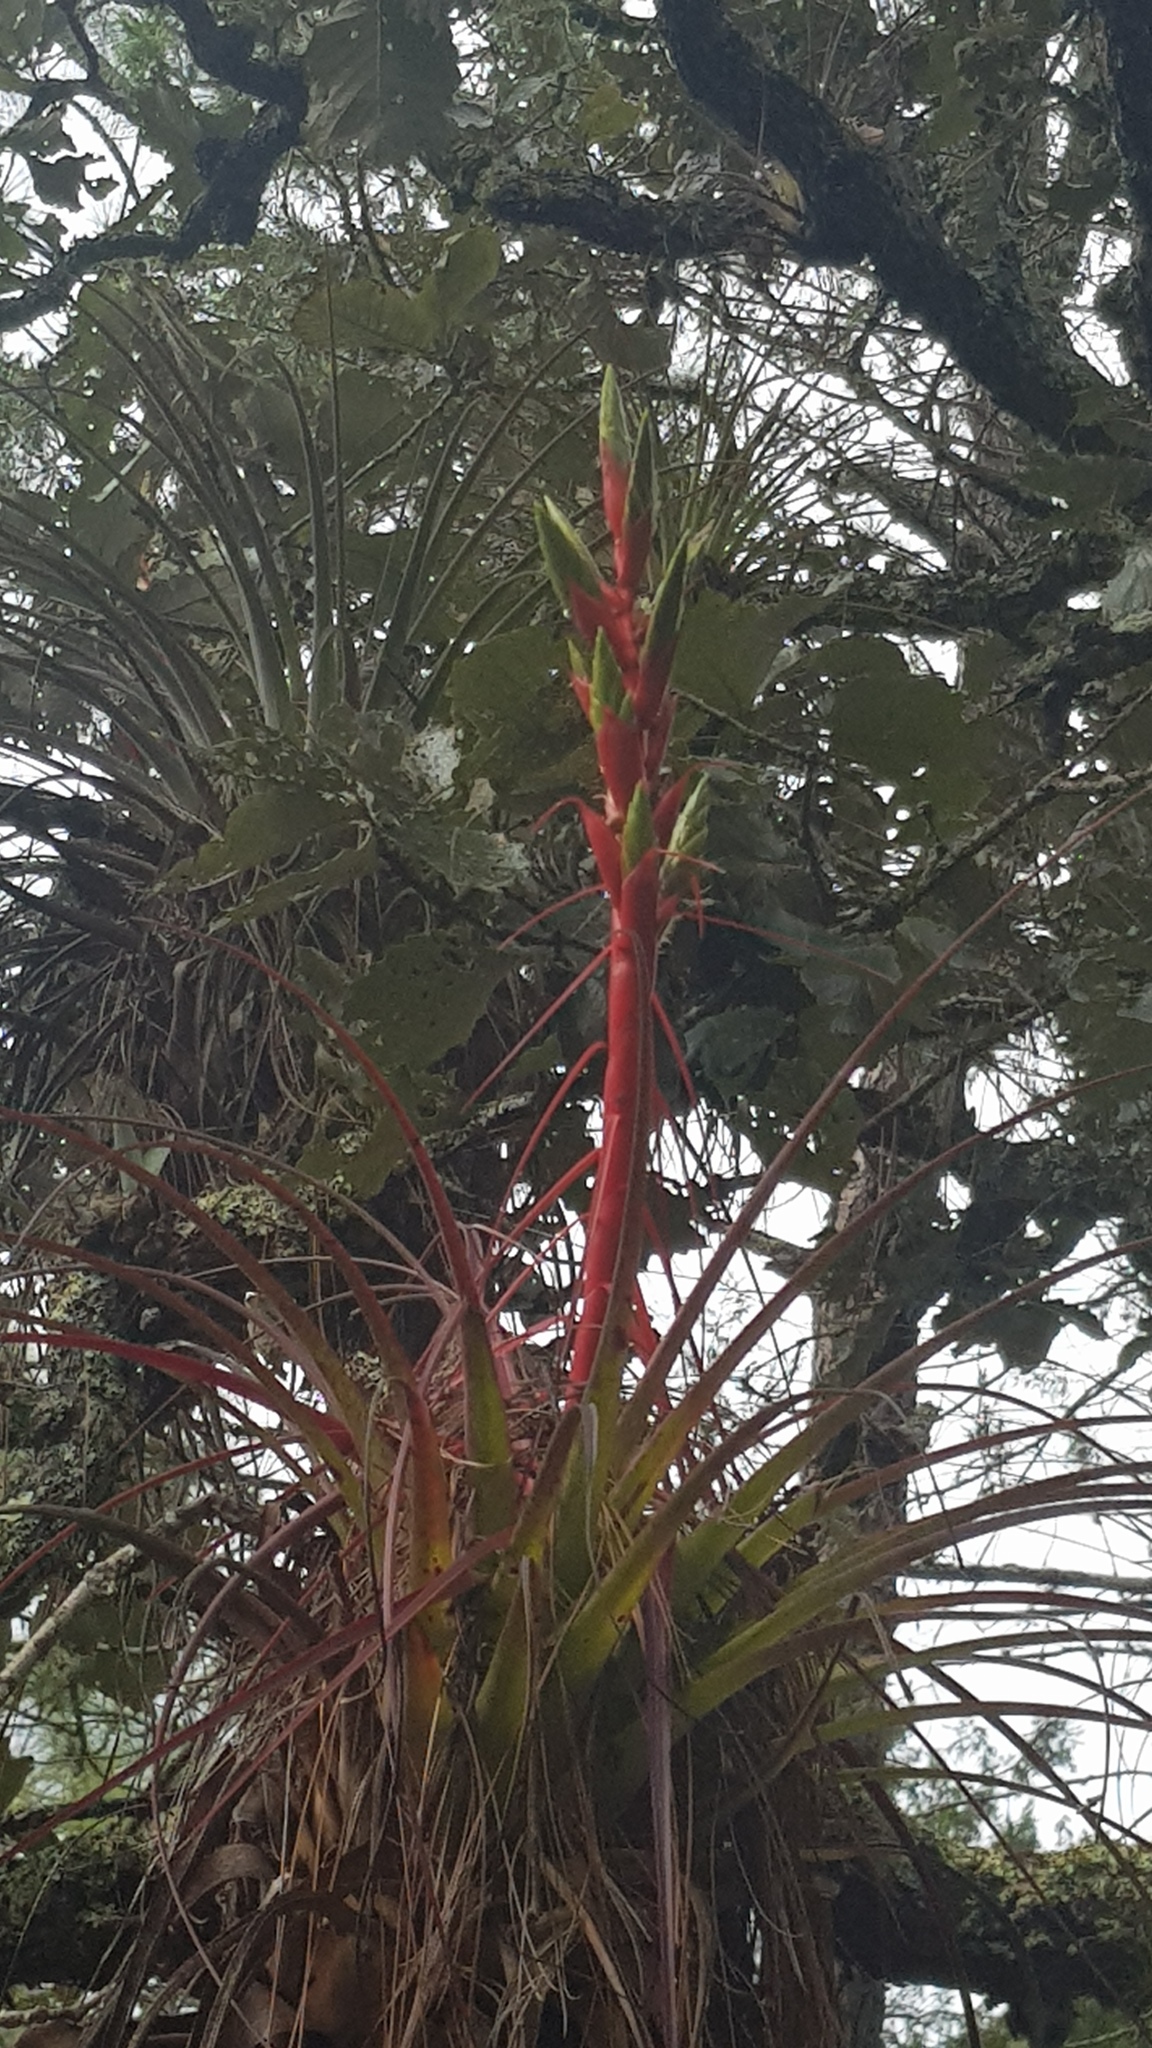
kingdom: Plantae
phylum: Tracheophyta
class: Liliopsida
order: Poales
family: Bromeliaceae
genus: Tillandsia
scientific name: Tillandsia calothyrsus
